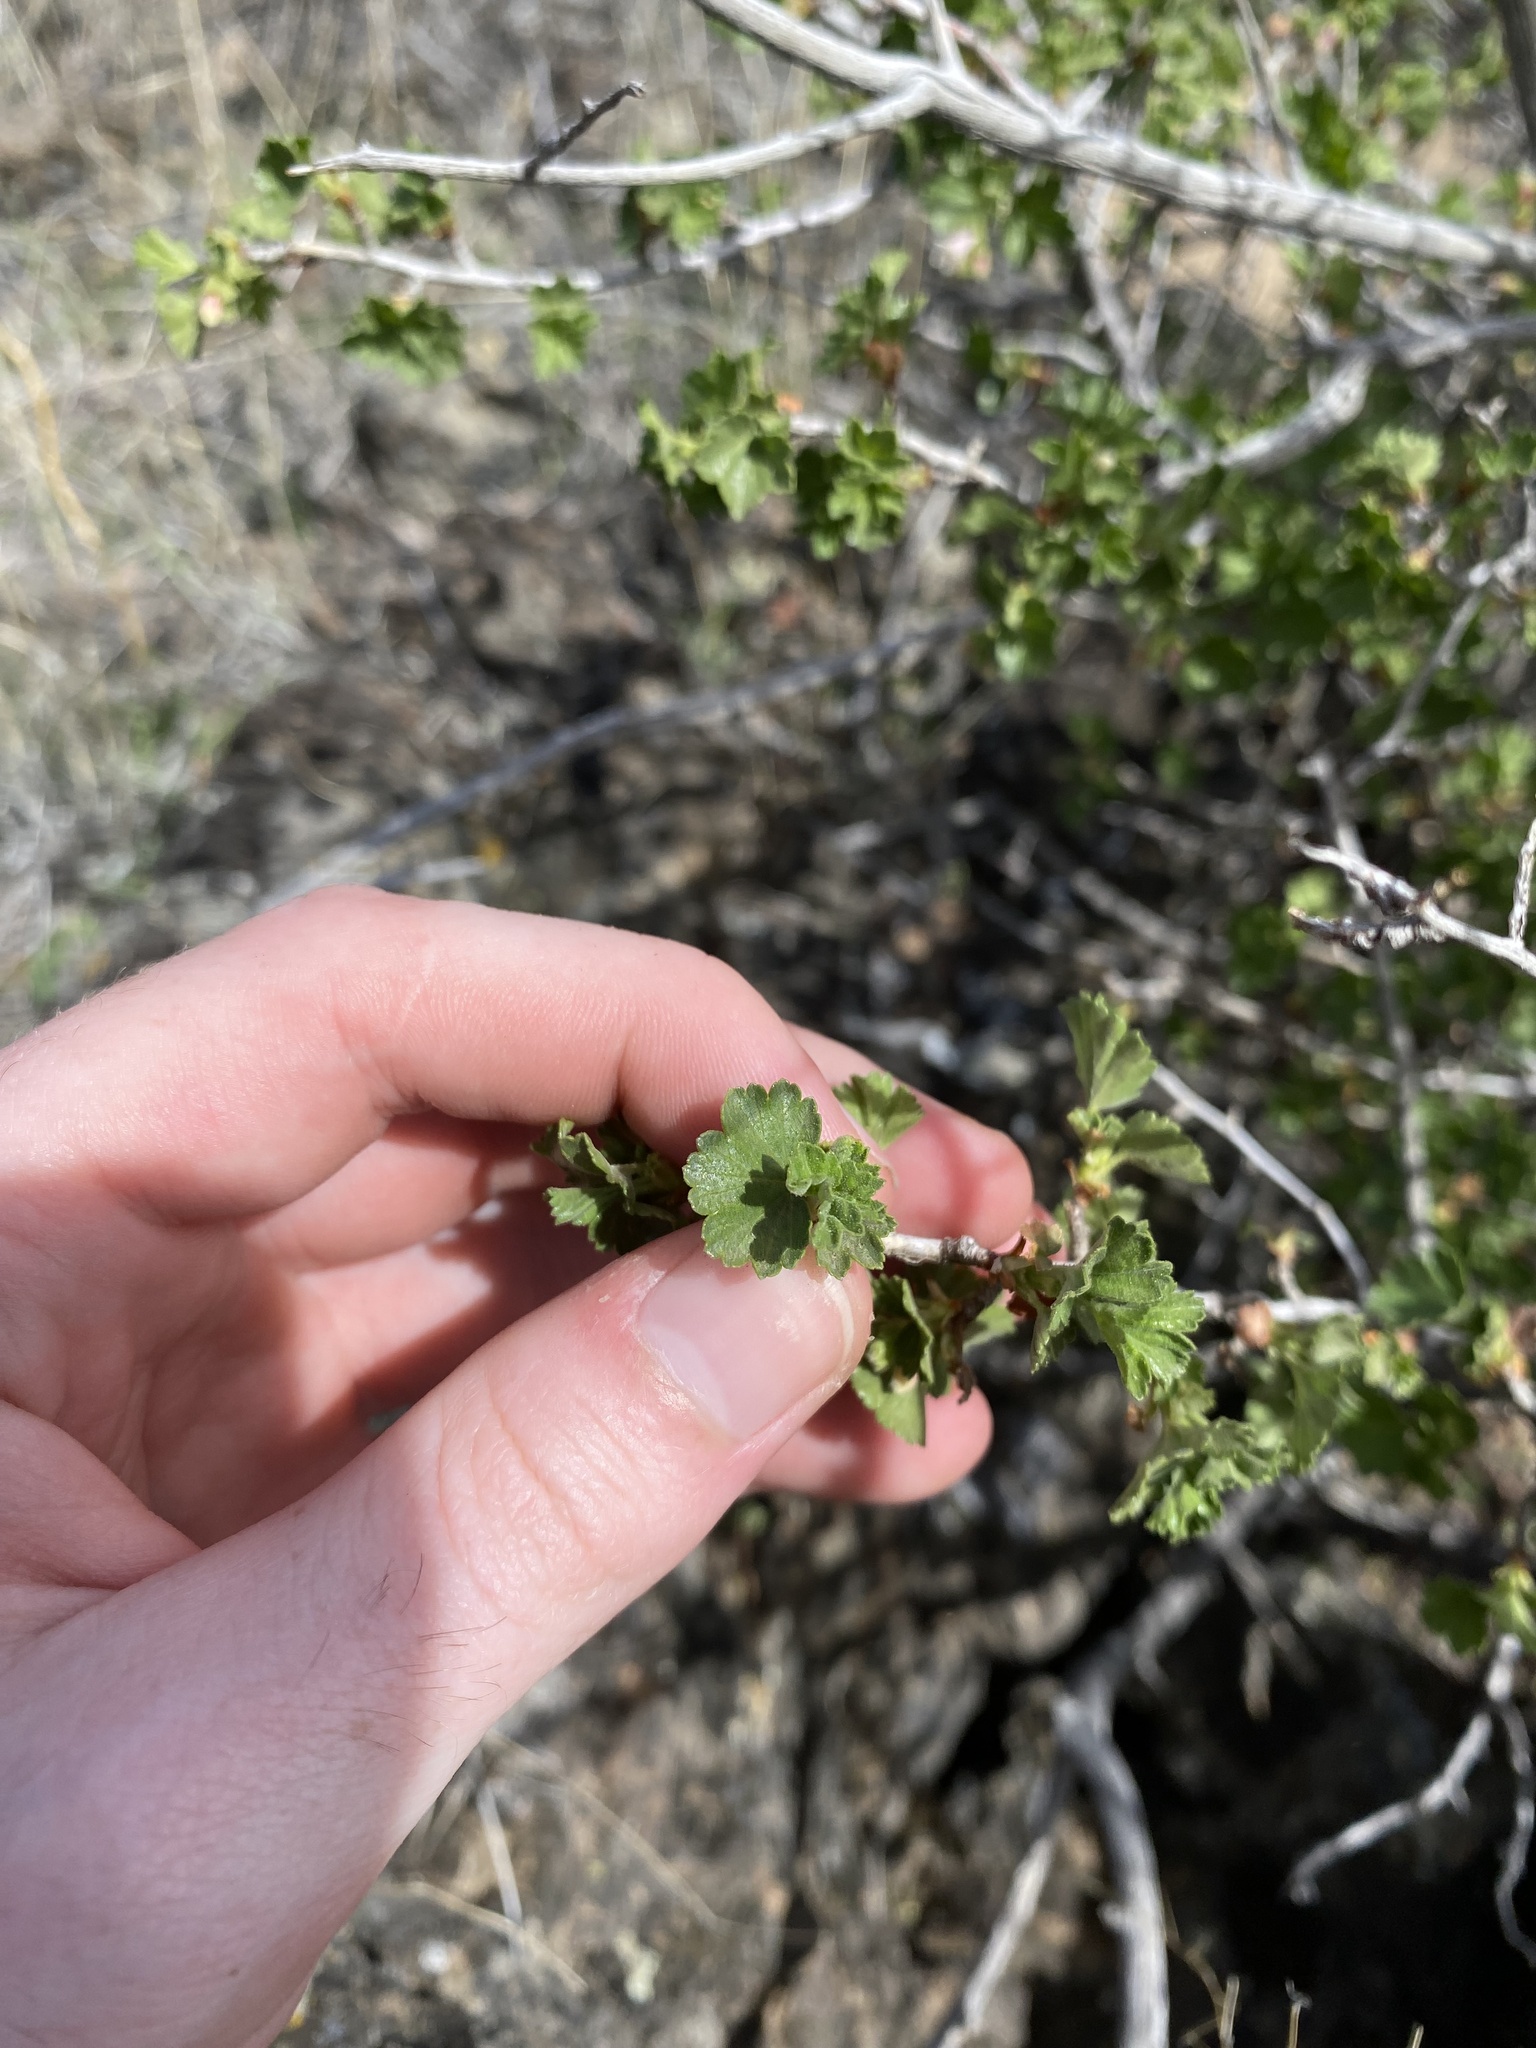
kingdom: Plantae
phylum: Tracheophyta
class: Magnoliopsida
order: Saxifragales
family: Grossulariaceae
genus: Ribes
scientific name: Ribes cereum
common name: Wax currant
